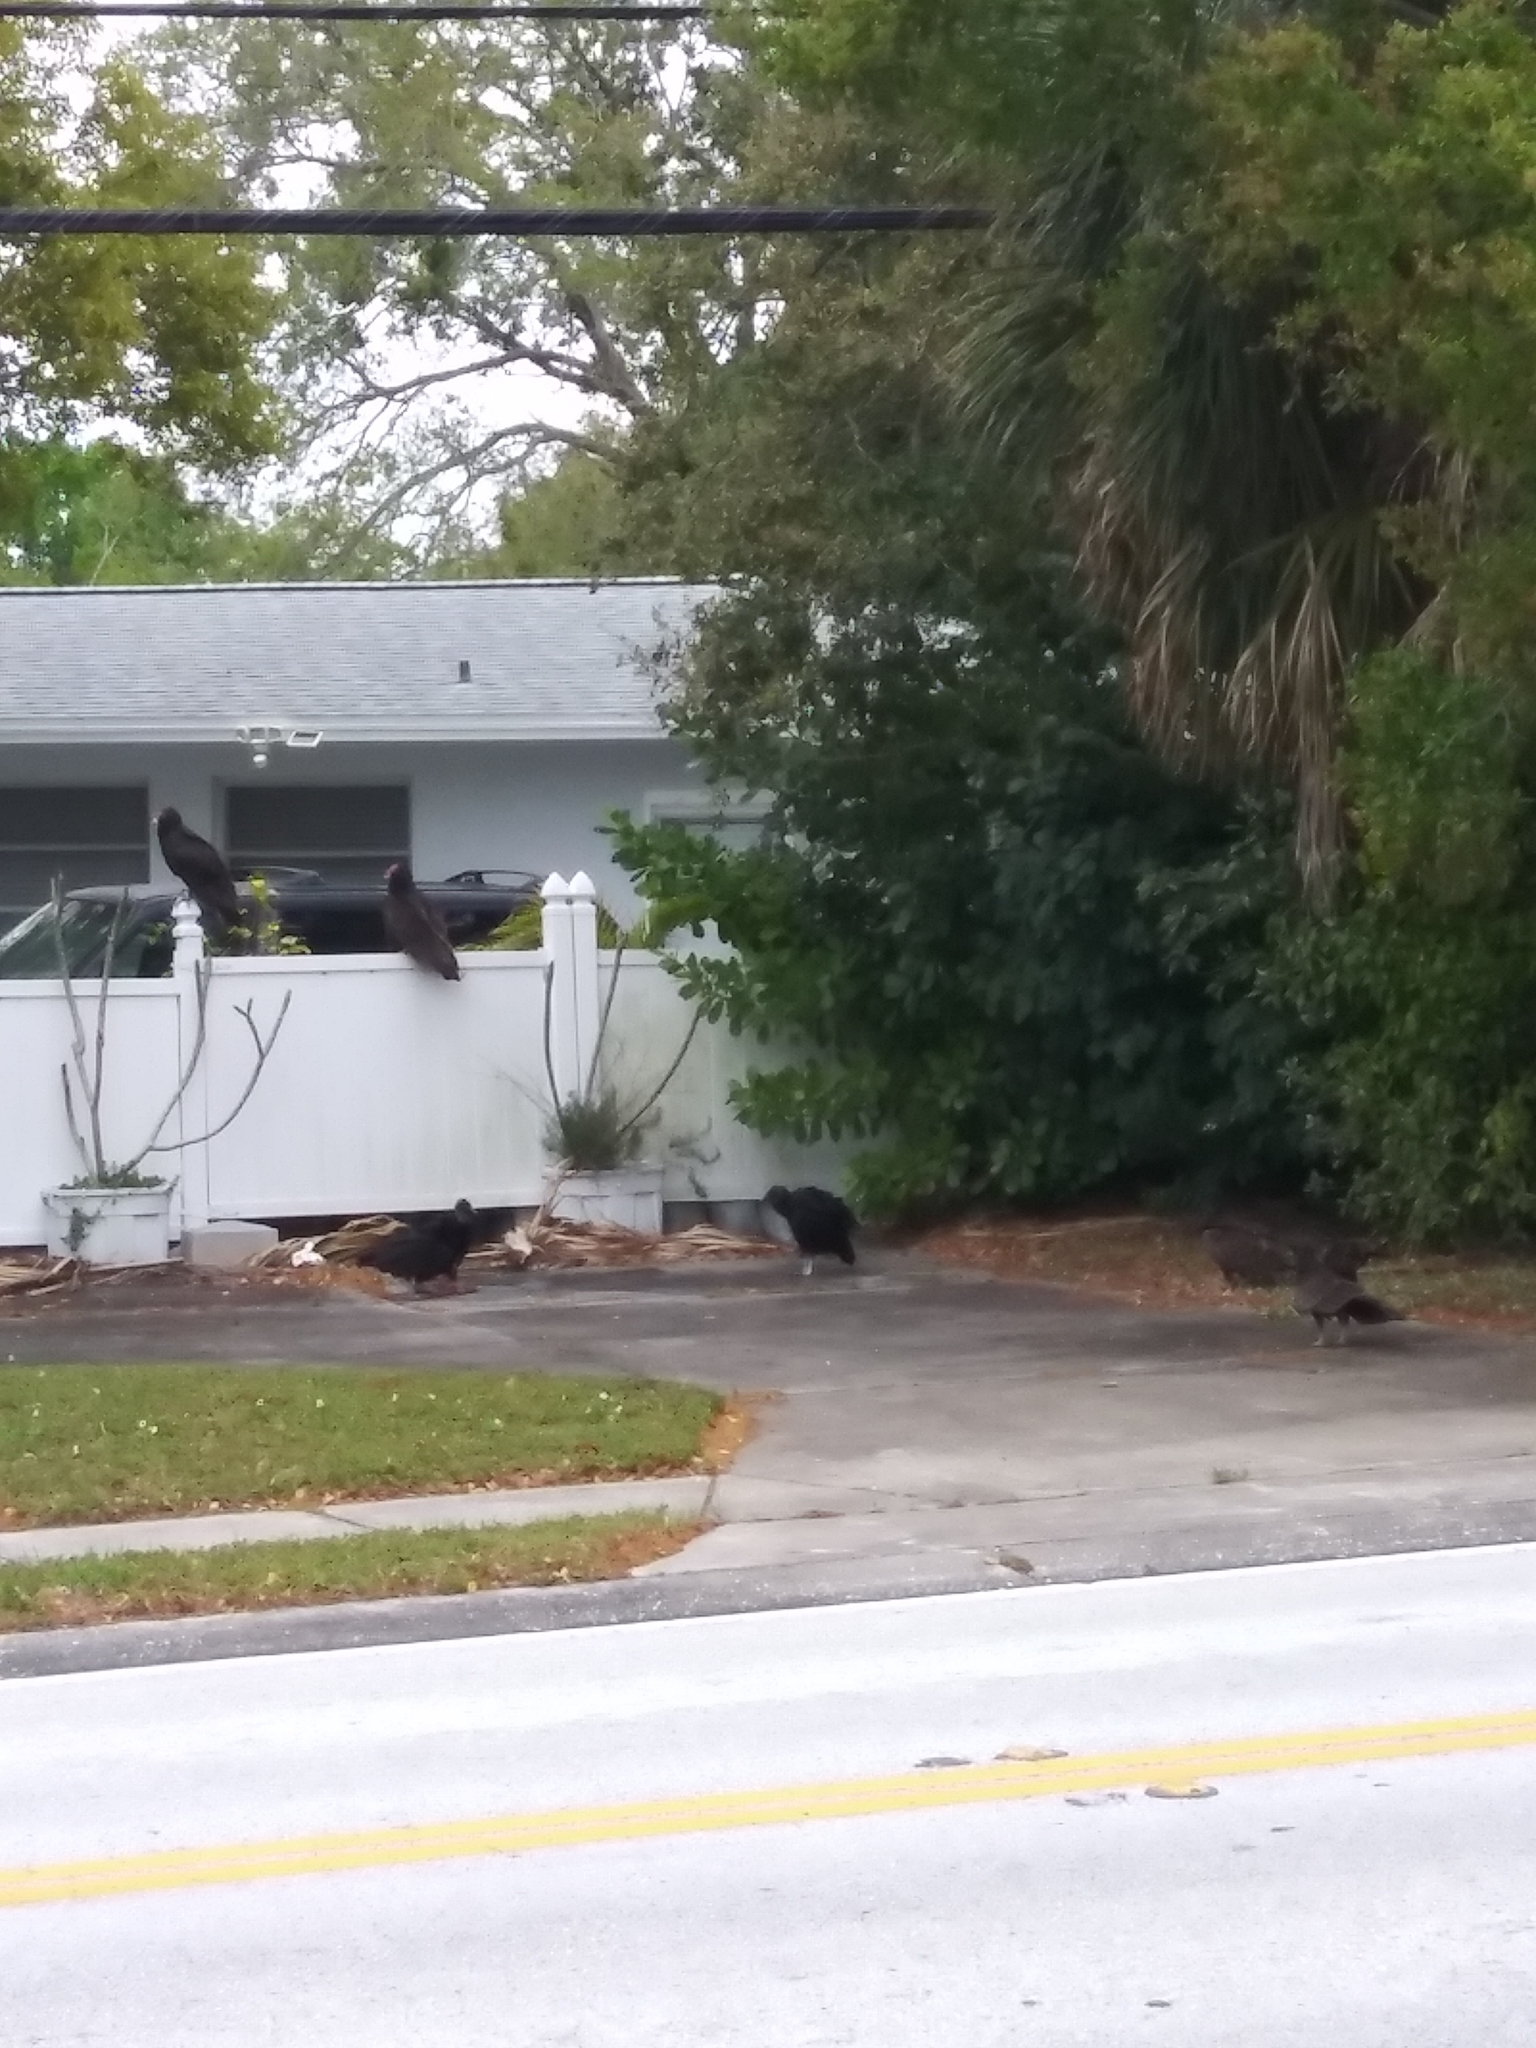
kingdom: Animalia
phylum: Chordata
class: Aves
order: Accipitriformes
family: Cathartidae
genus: Coragyps
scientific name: Coragyps atratus
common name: Black vulture
